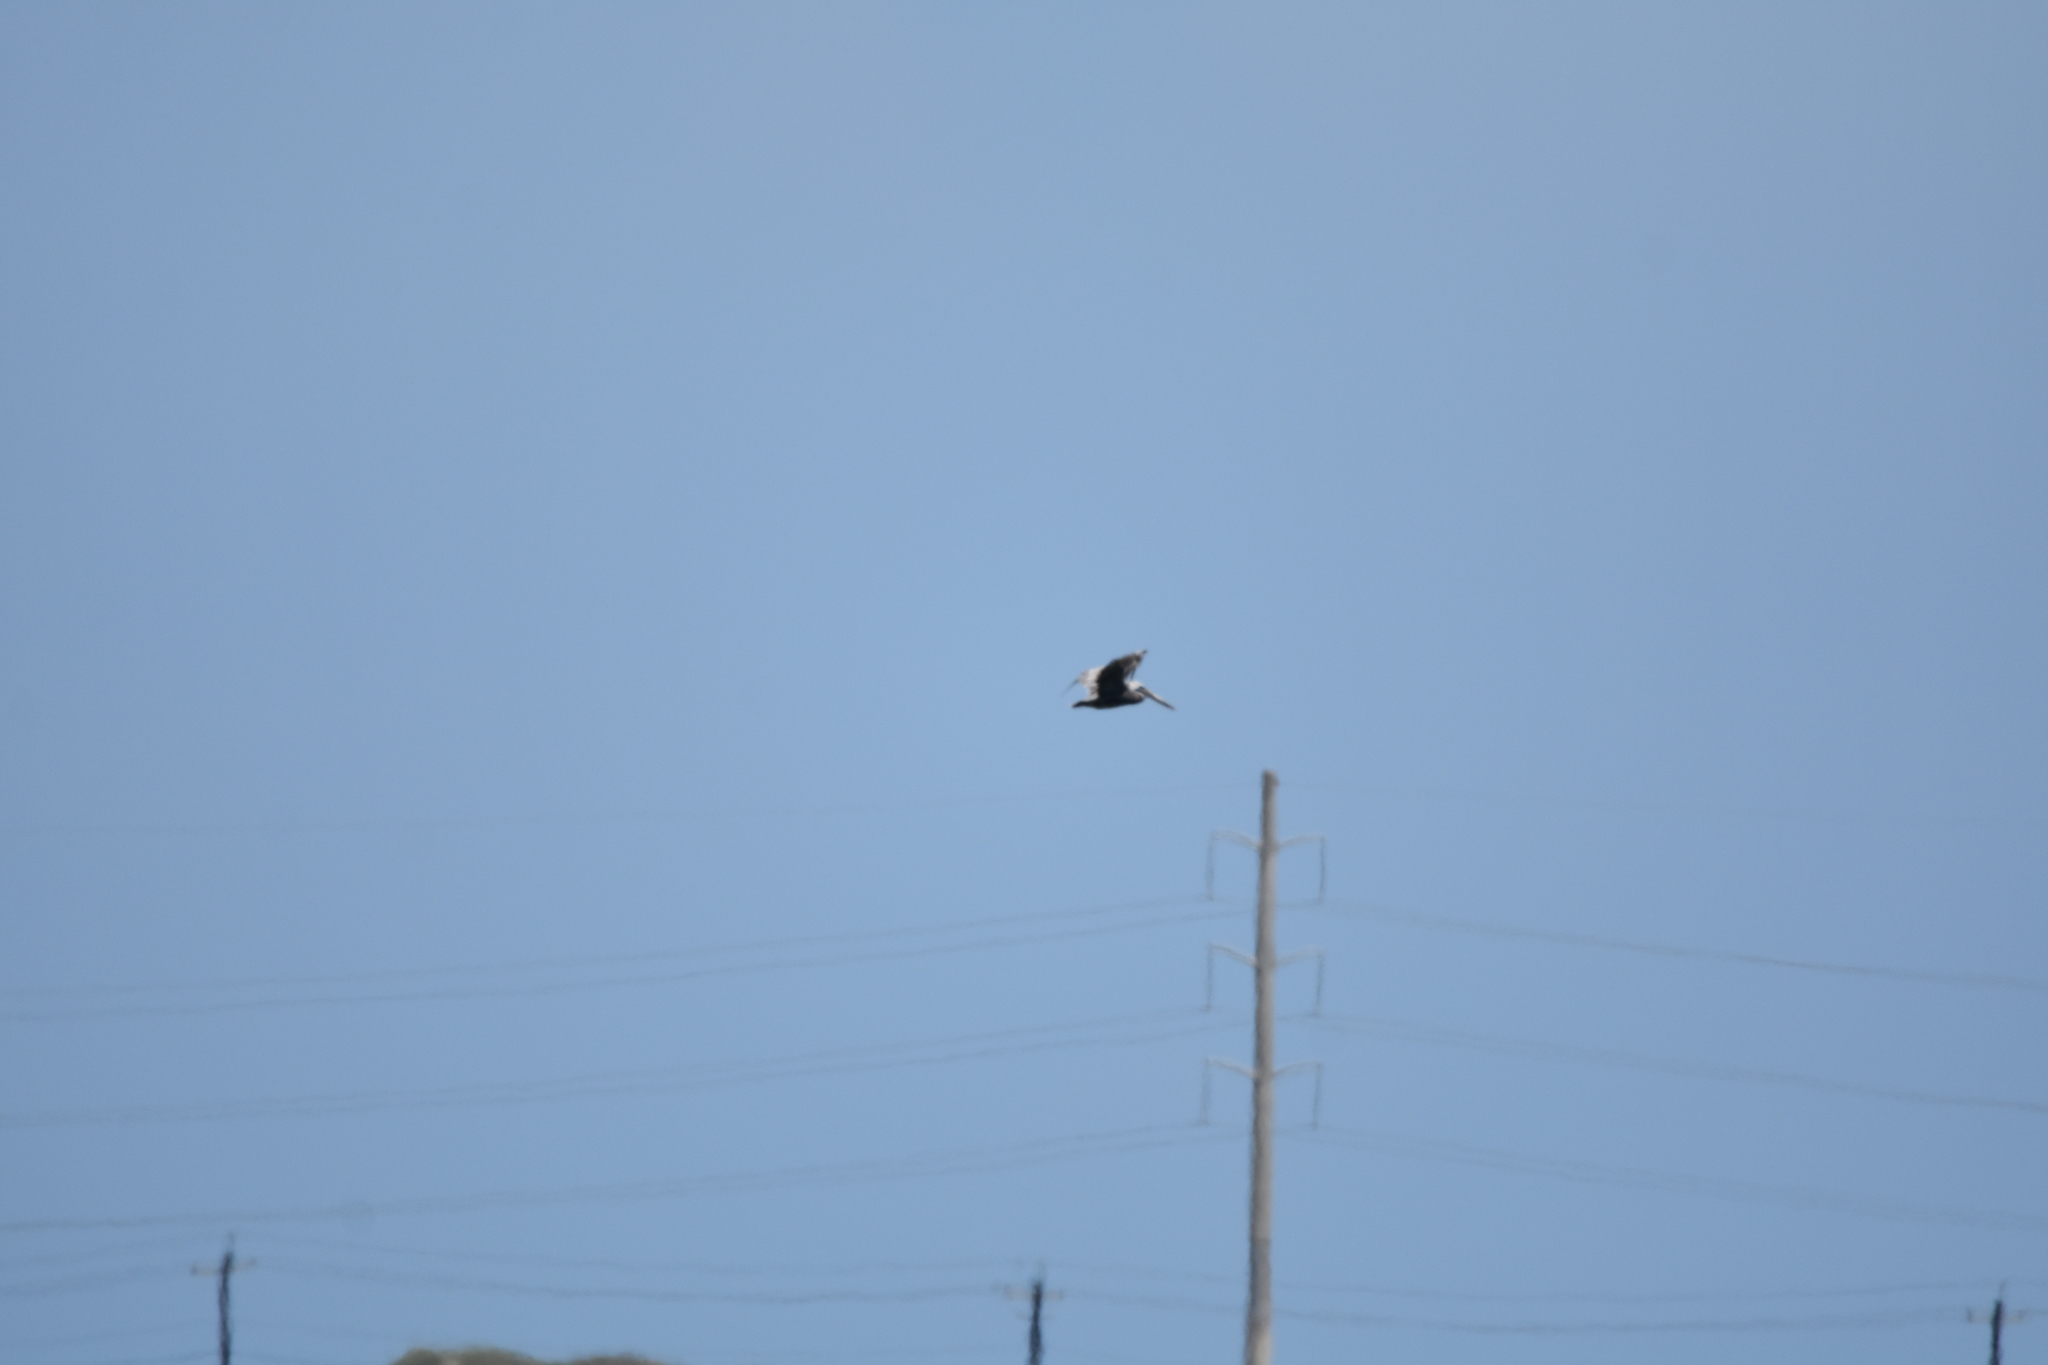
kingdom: Animalia
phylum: Chordata
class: Aves
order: Pelecaniformes
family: Pelecanidae
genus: Pelecanus
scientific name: Pelecanus occidentalis
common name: Brown pelican
